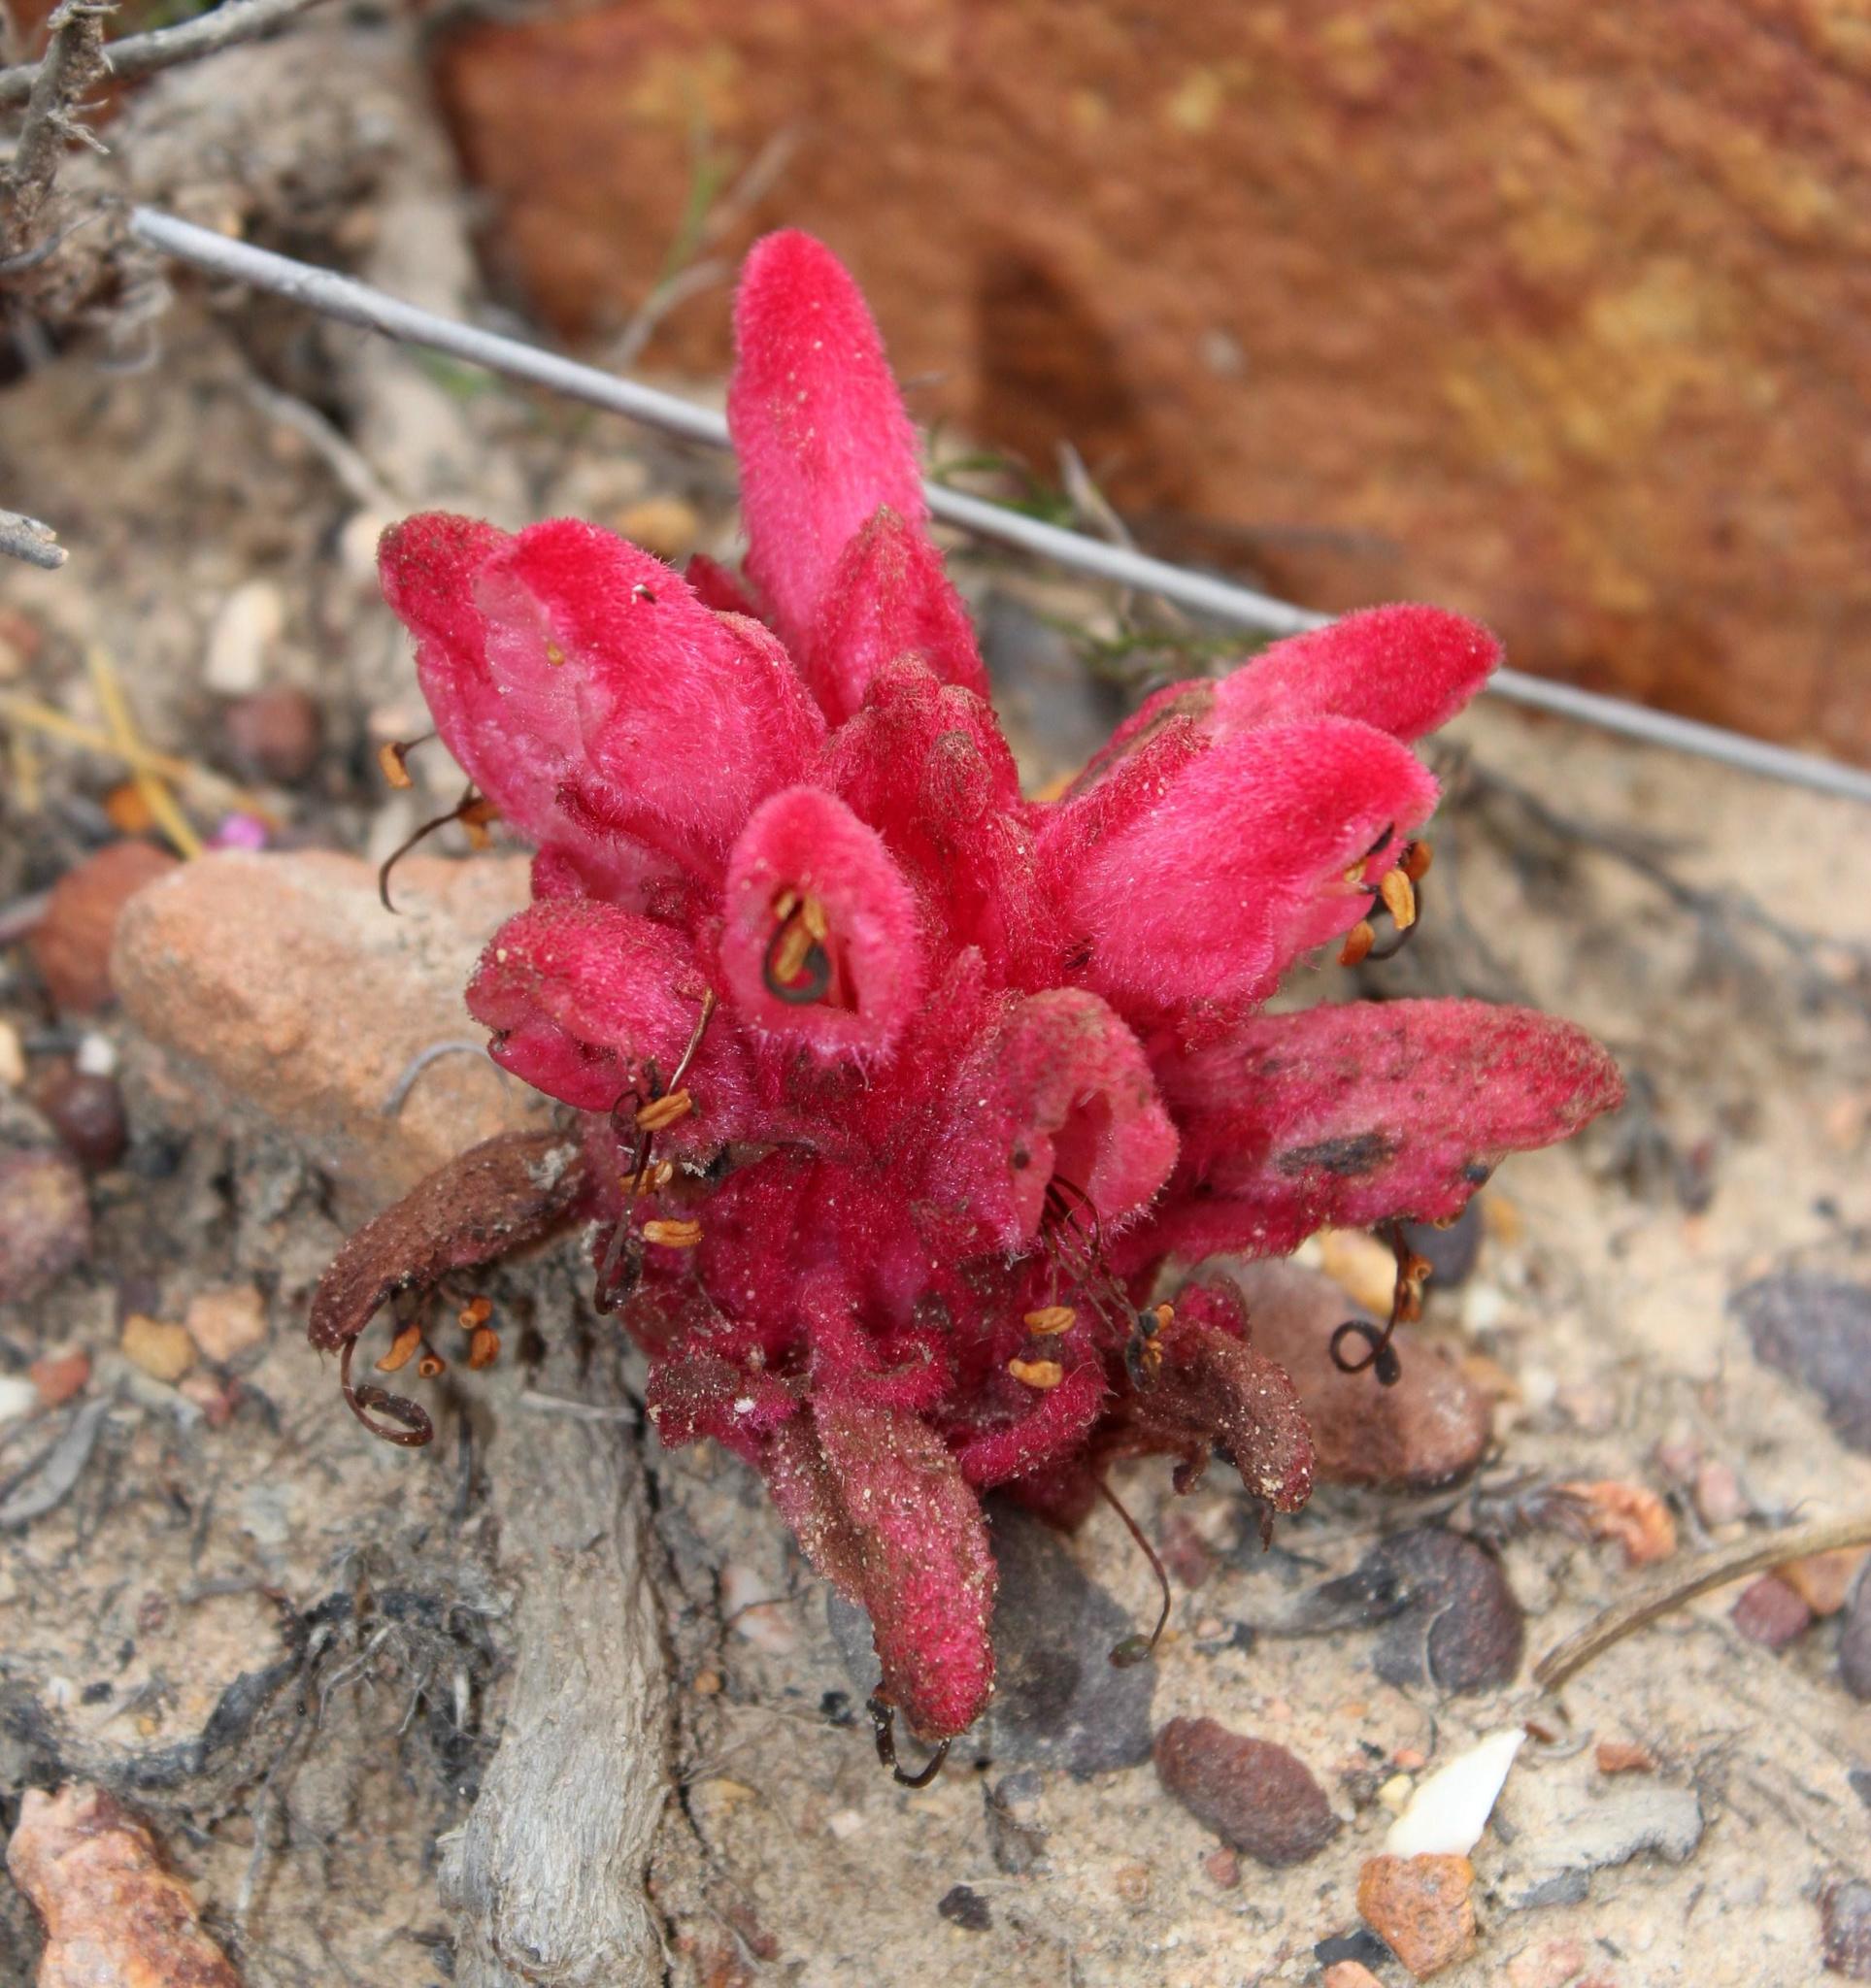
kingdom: Plantae
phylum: Tracheophyta
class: Magnoliopsida
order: Lamiales
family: Orobanchaceae
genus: Hyobanche
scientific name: Hyobanche sanguinea
